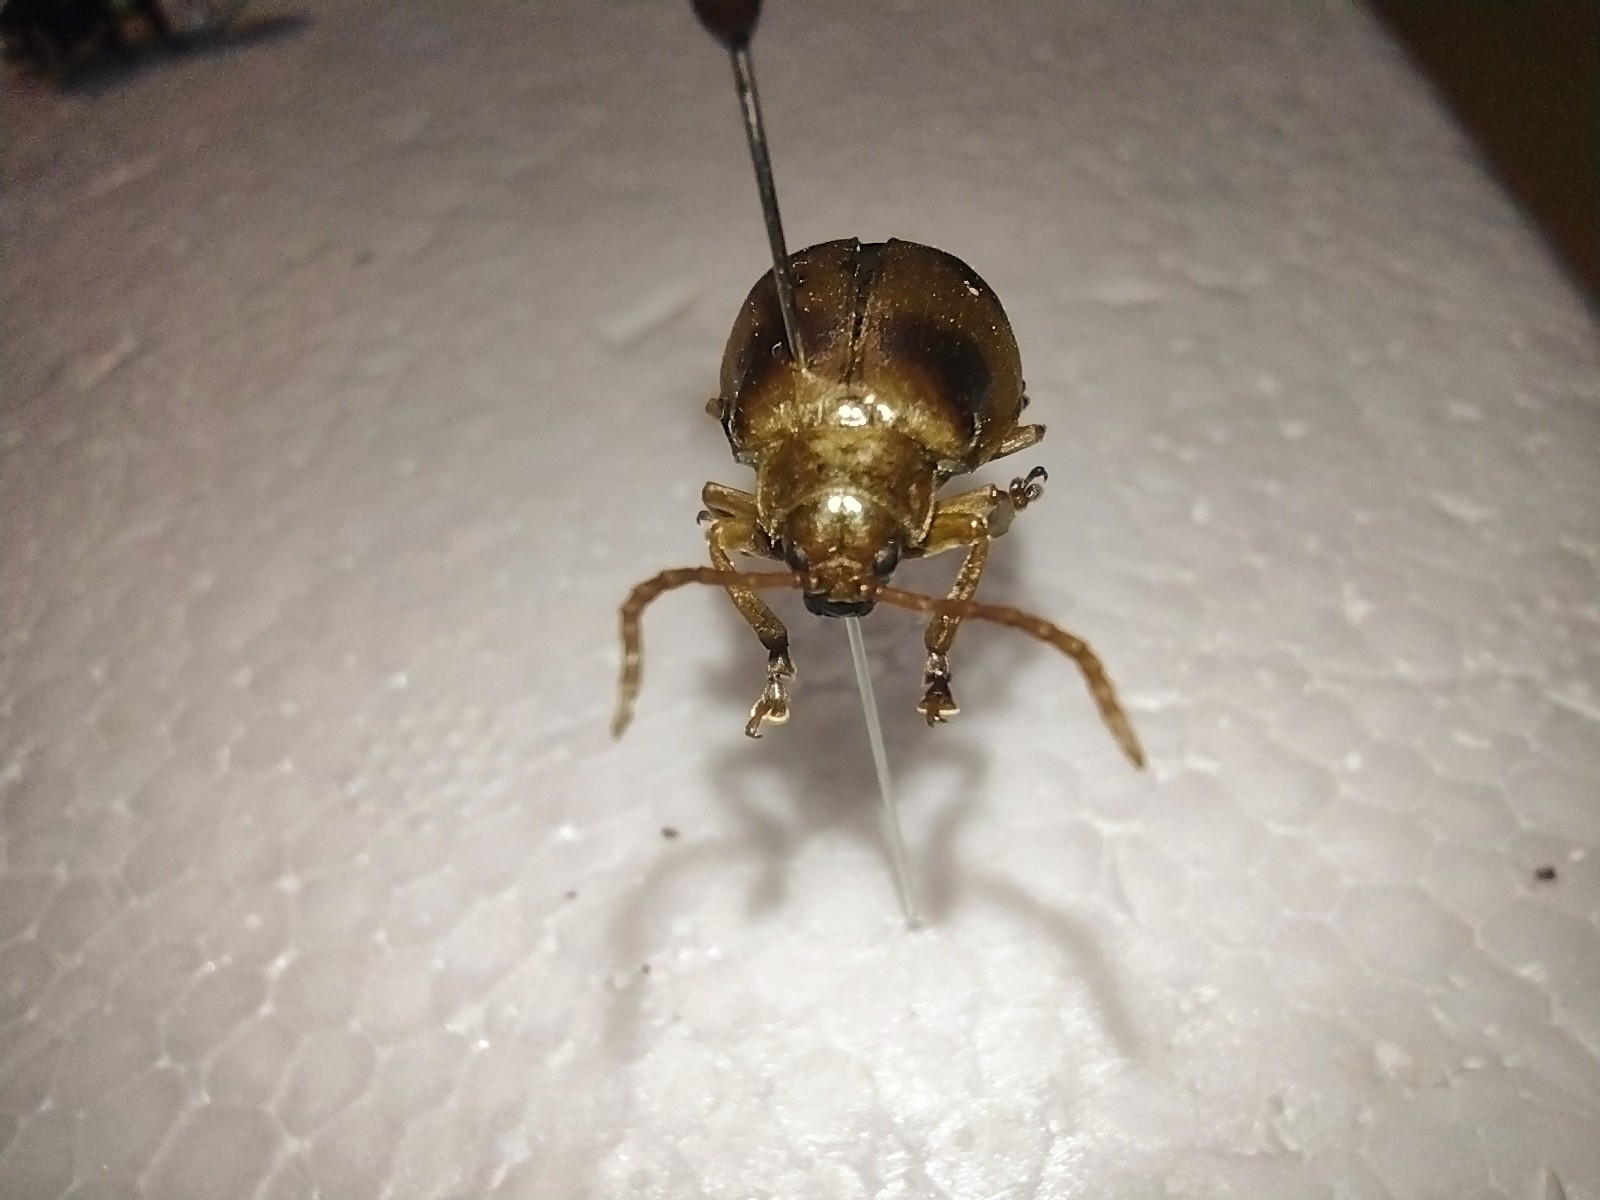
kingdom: Animalia
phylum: Arthropoda
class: Insecta
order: Coleoptera
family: Chrysomelidae
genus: Monocesta
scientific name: Monocesta coryli
